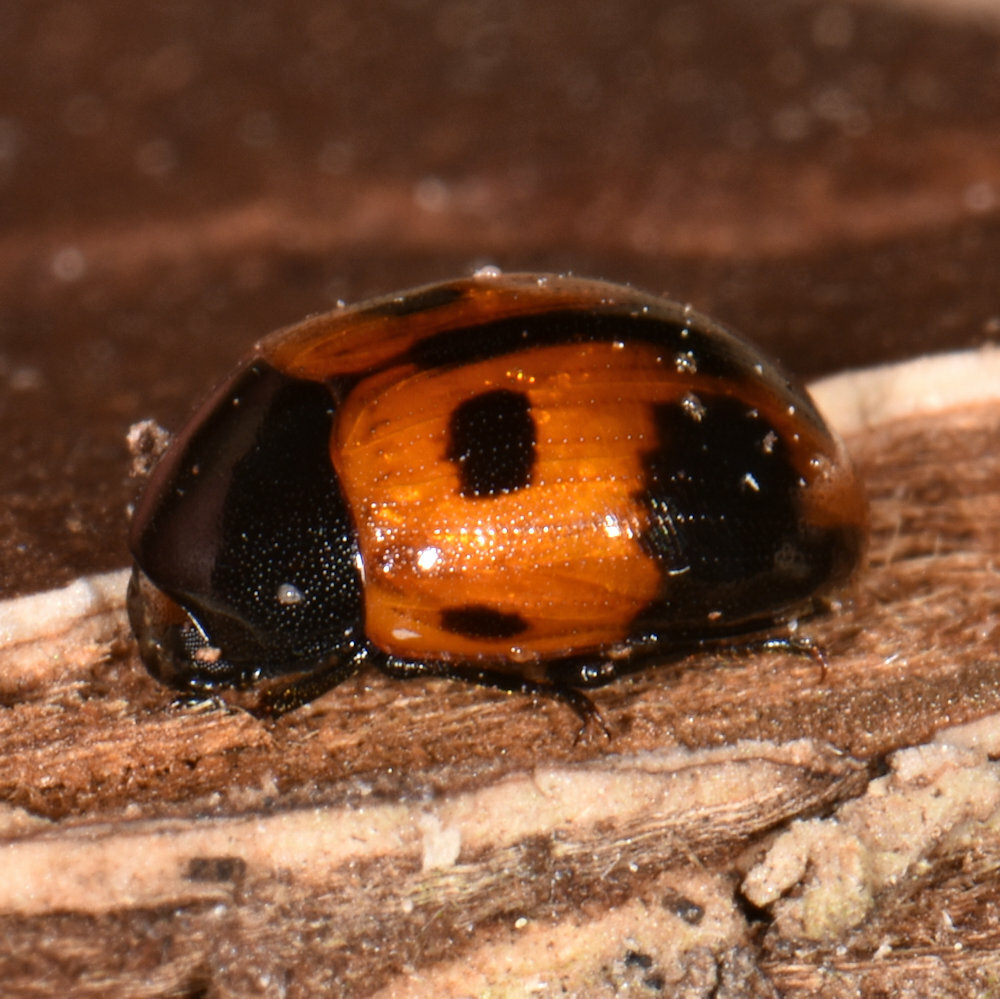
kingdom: Animalia
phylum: Arthropoda
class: Insecta
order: Coleoptera
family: Tenebrionidae
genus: Diaperis
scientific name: Diaperis maculata
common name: Darkling beetle
